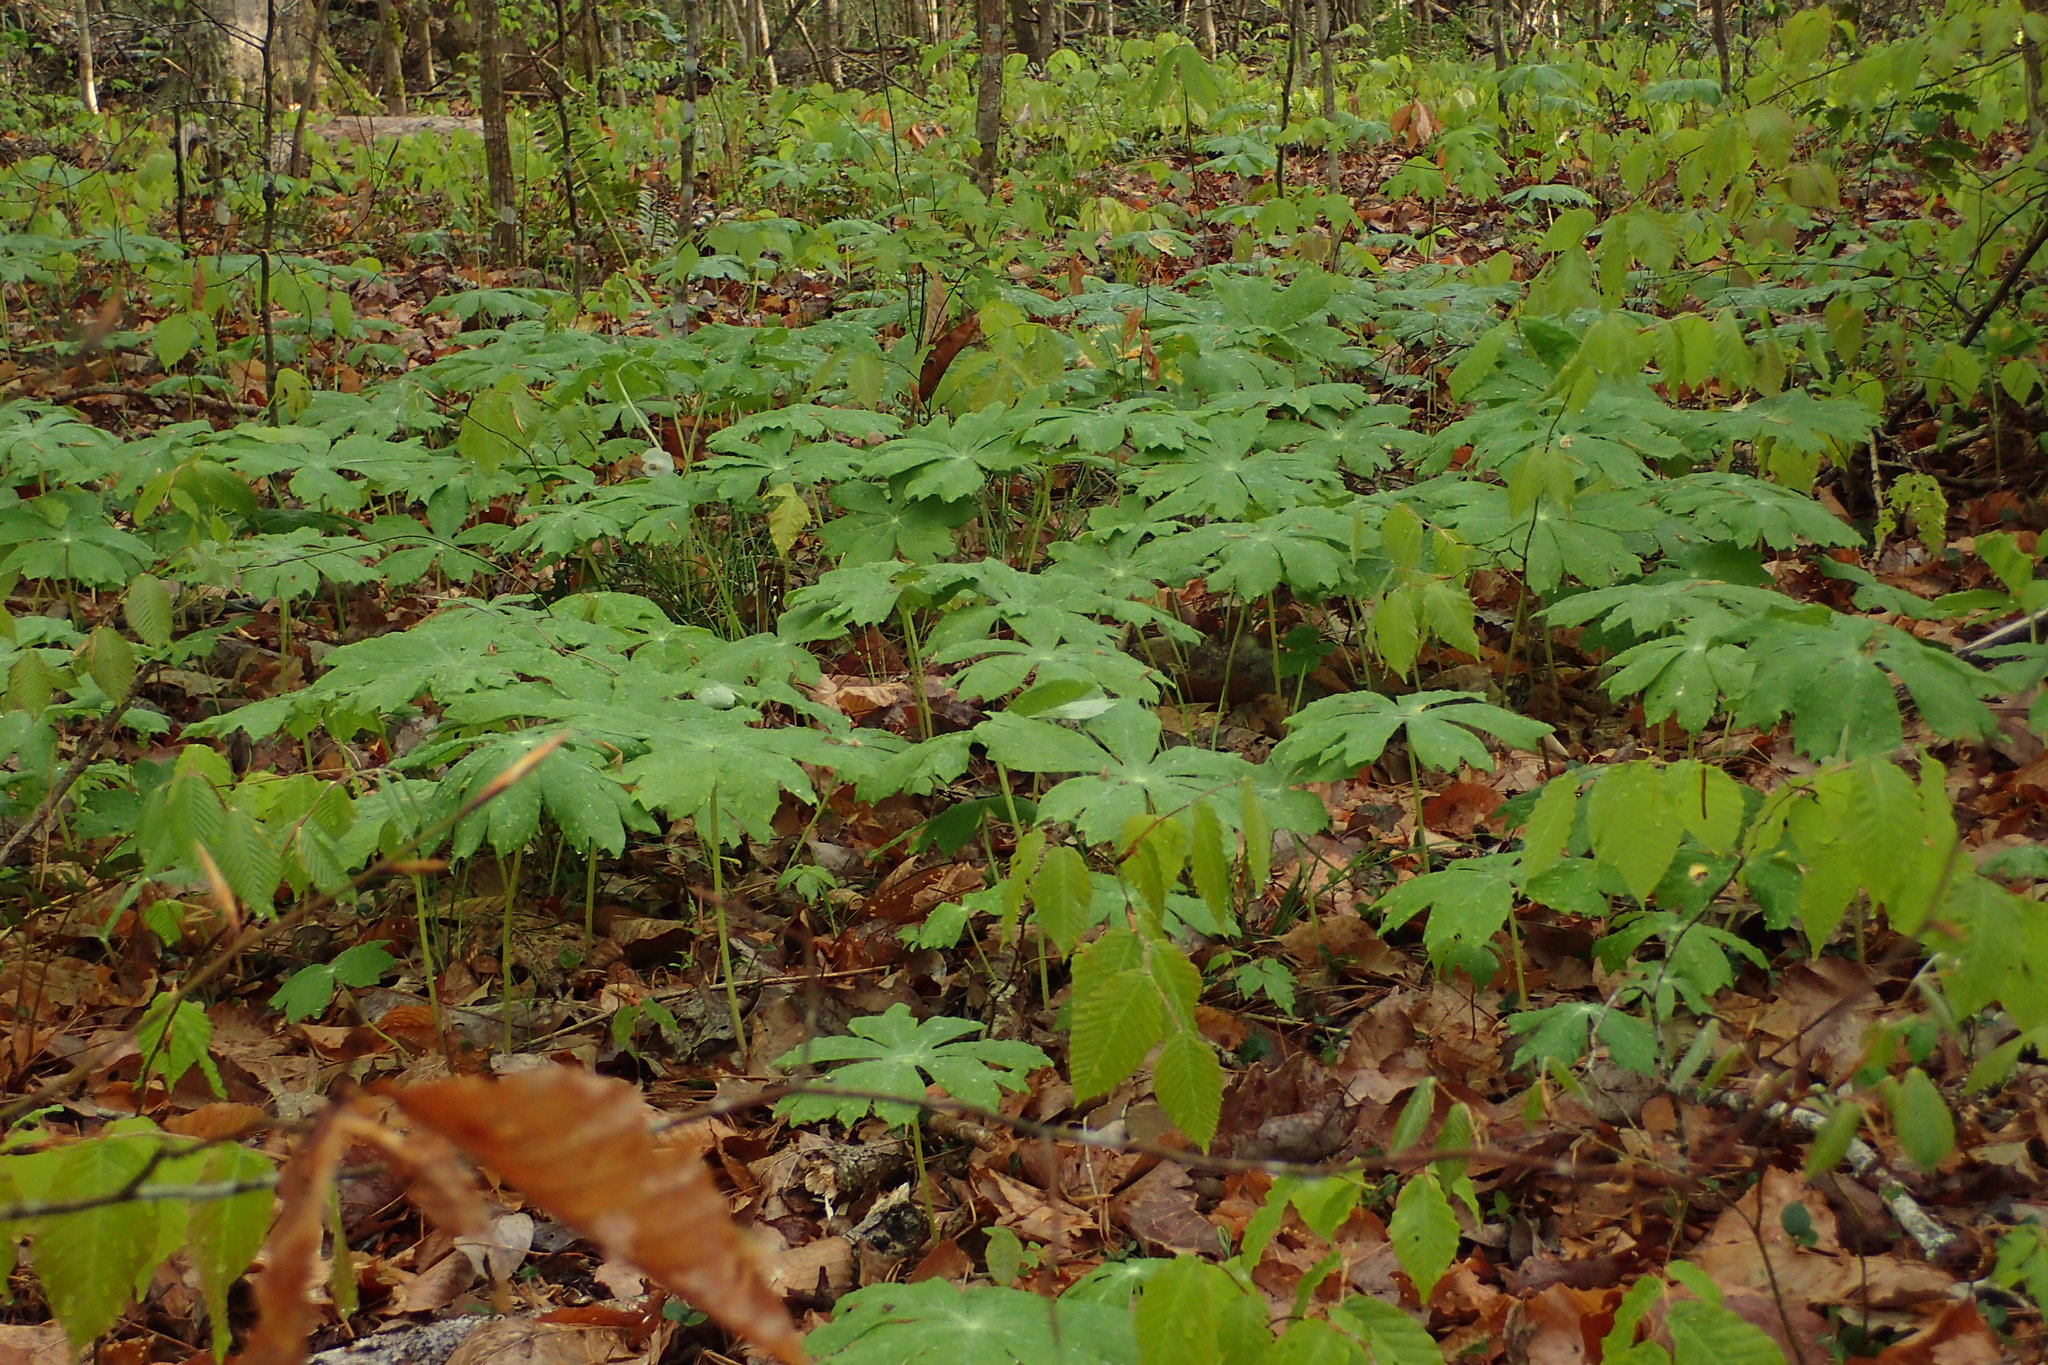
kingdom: Plantae
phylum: Tracheophyta
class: Magnoliopsida
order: Ranunculales
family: Berberidaceae
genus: Podophyllum
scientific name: Podophyllum peltatum
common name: Wild mandrake
